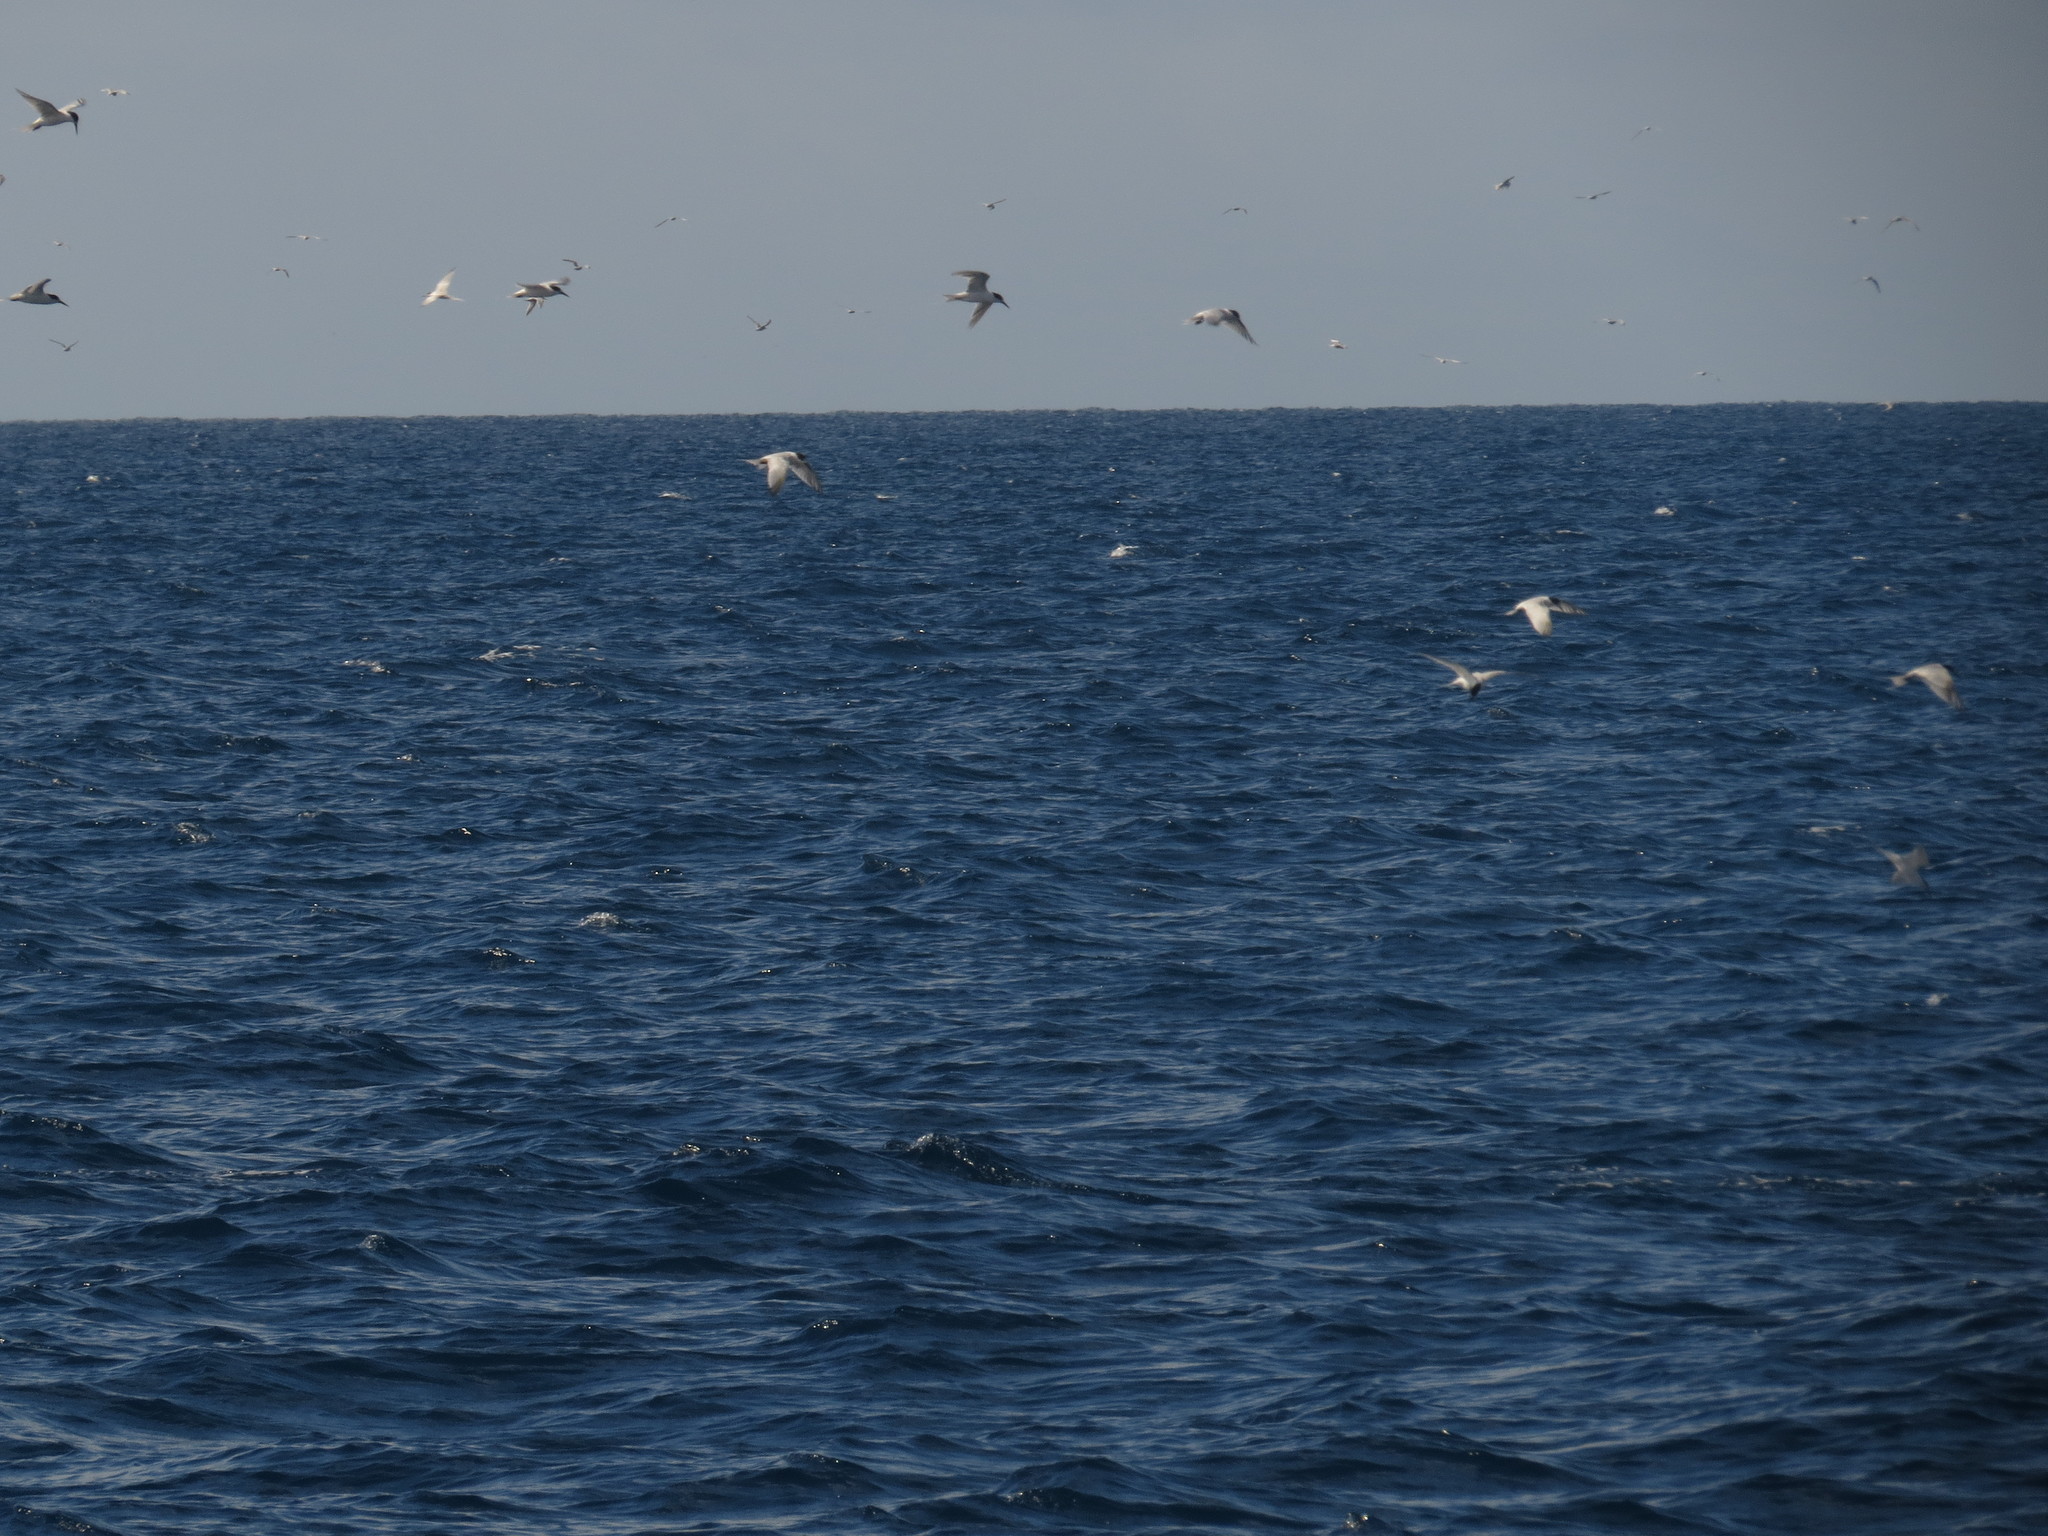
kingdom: Animalia
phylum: Chordata
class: Aves
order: Charadriiformes
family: Laridae
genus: Sterna
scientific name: Sterna dougallii
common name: Roseate tern
